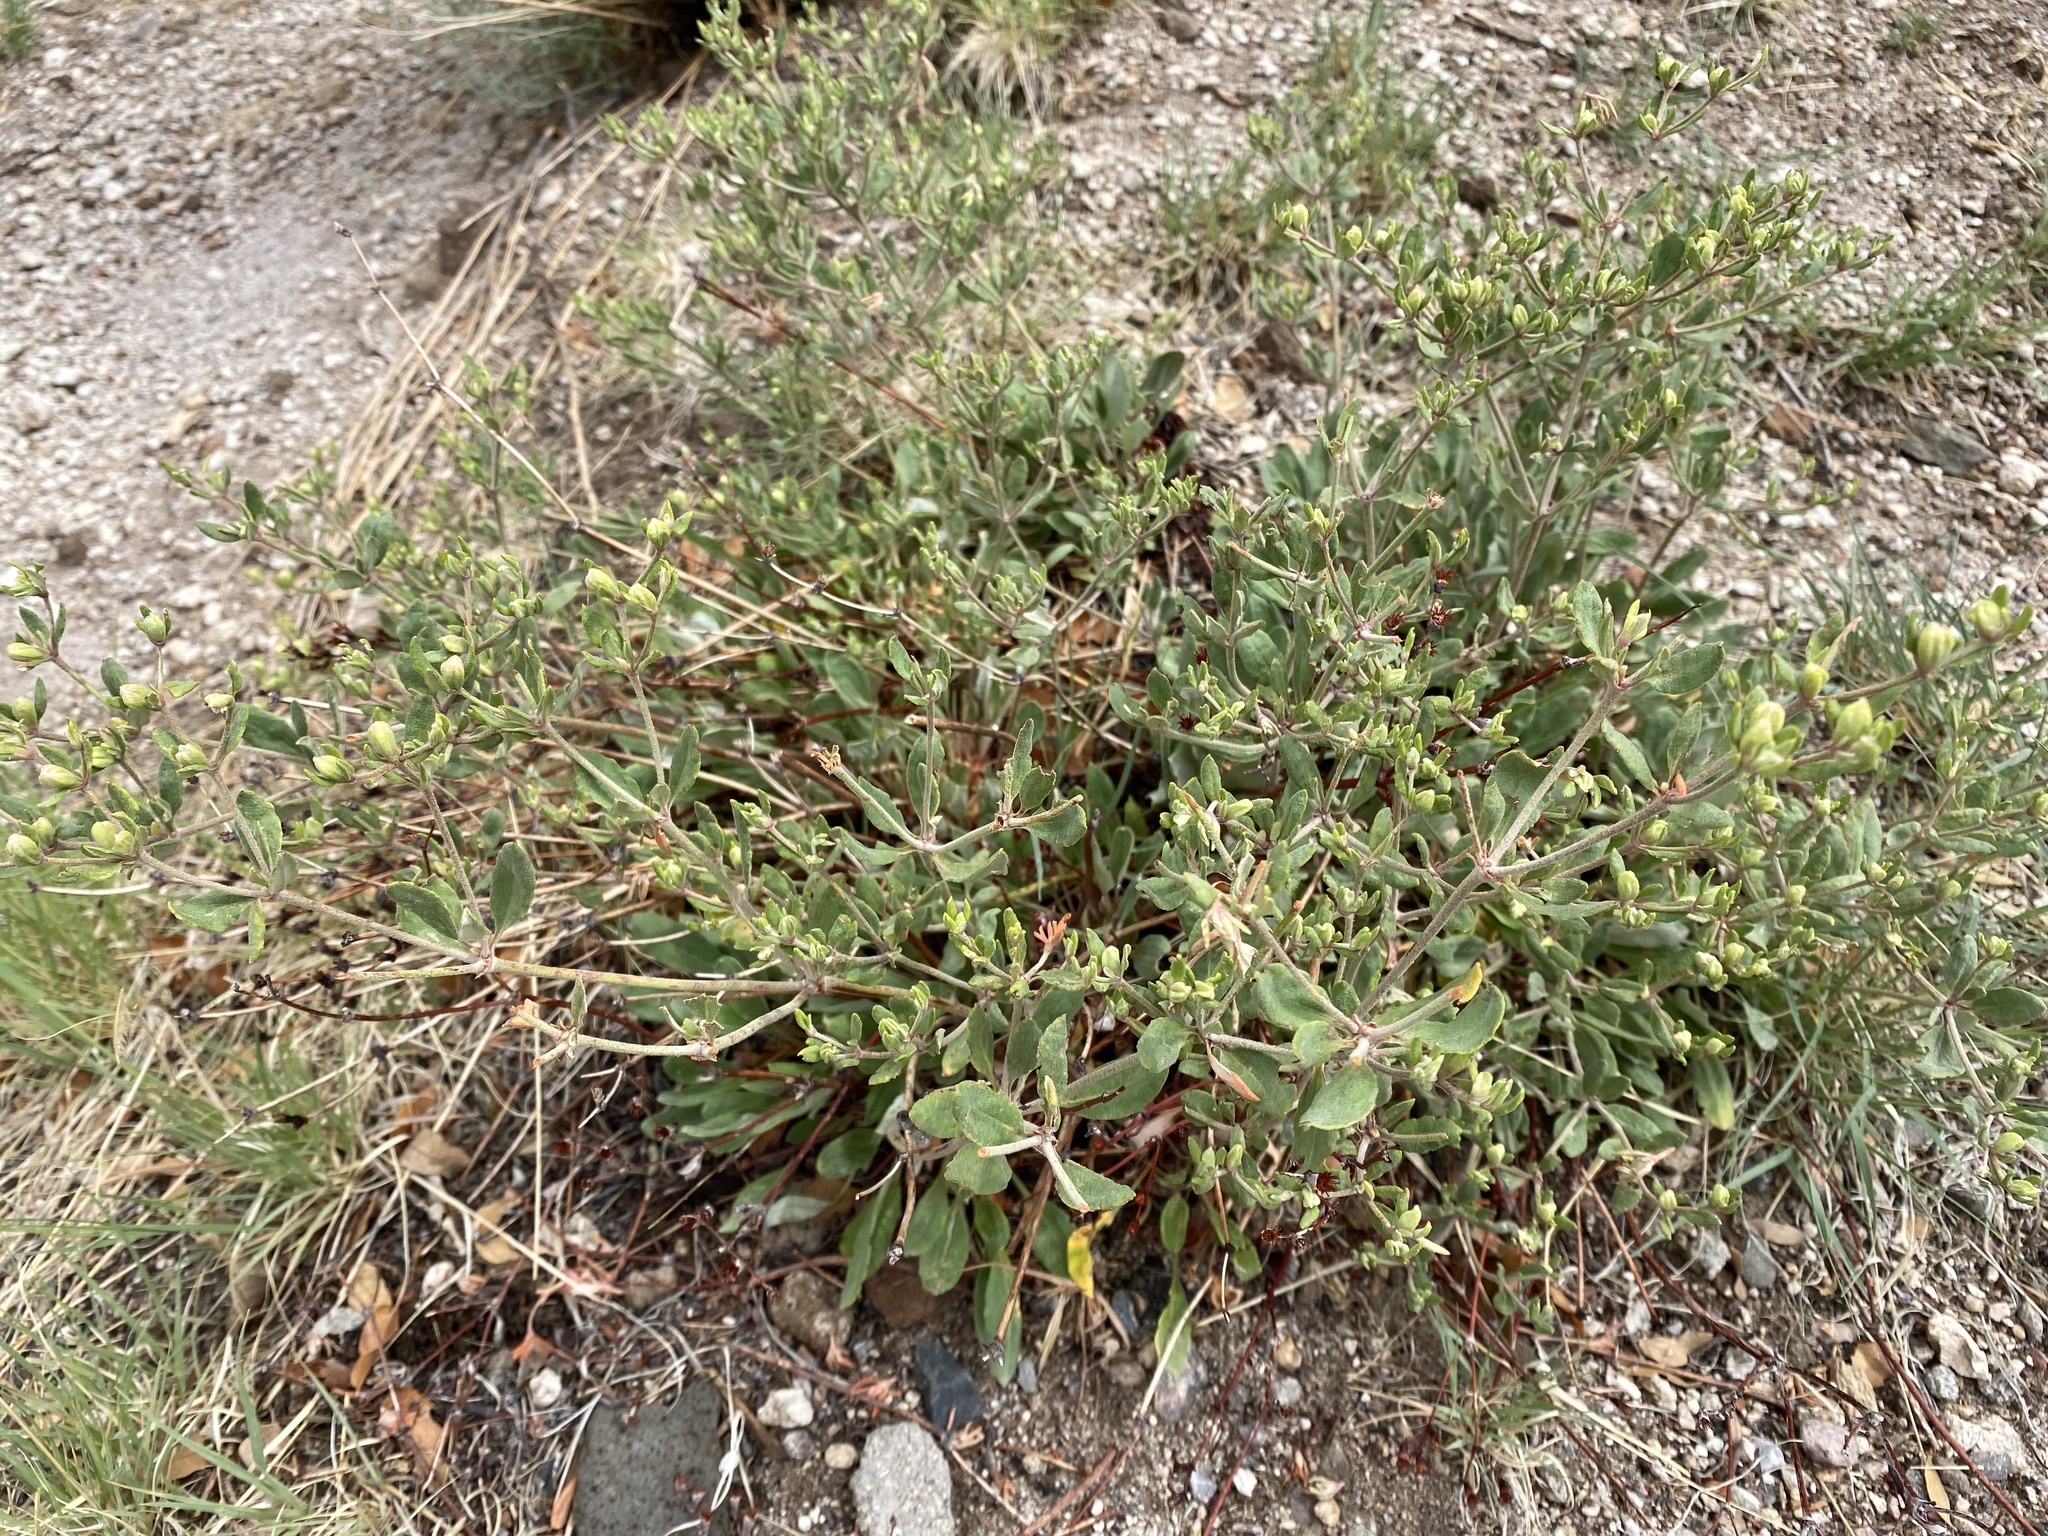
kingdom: Plantae
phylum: Tracheophyta
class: Magnoliopsida
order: Caryophyllales
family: Polygonaceae
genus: Eriogonum
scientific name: Eriogonum jamesii
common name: Antelope-sage
